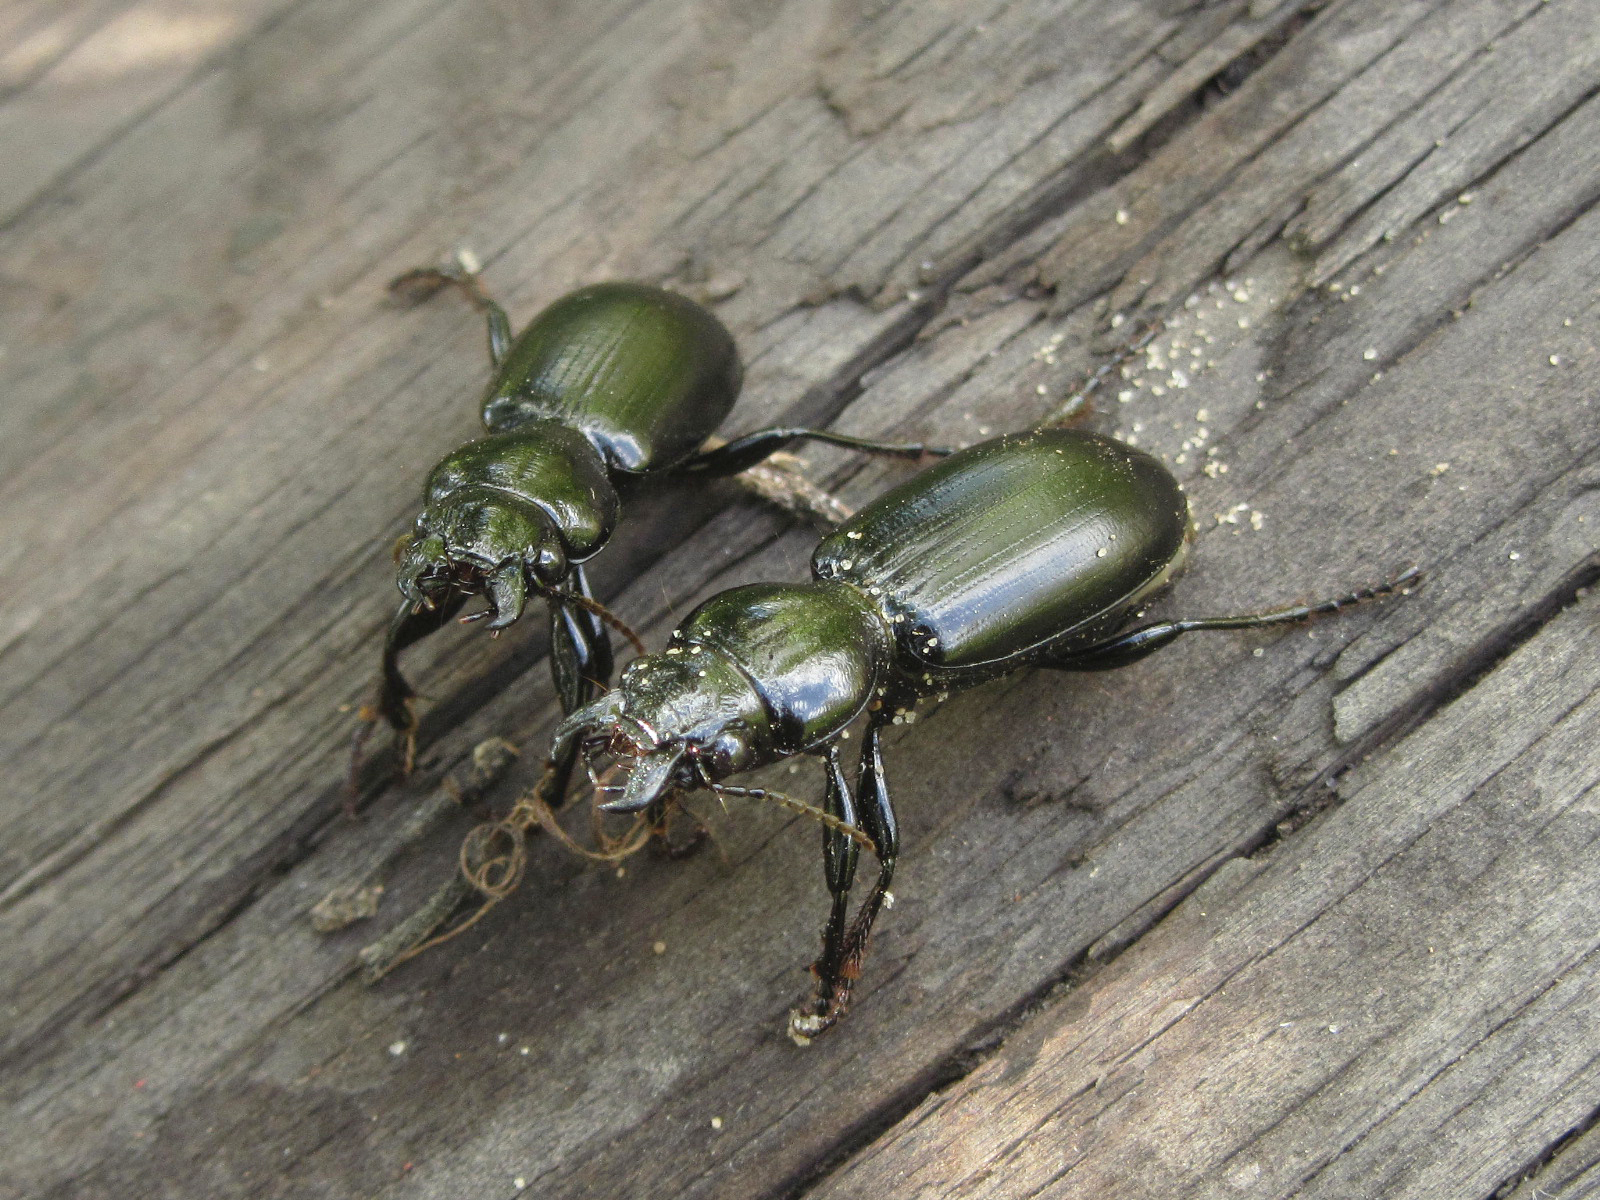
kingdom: Animalia
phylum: Arthropoda
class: Insecta
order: Coleoptera
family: Carabidae
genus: Broscus
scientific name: Broscus semistriatus
